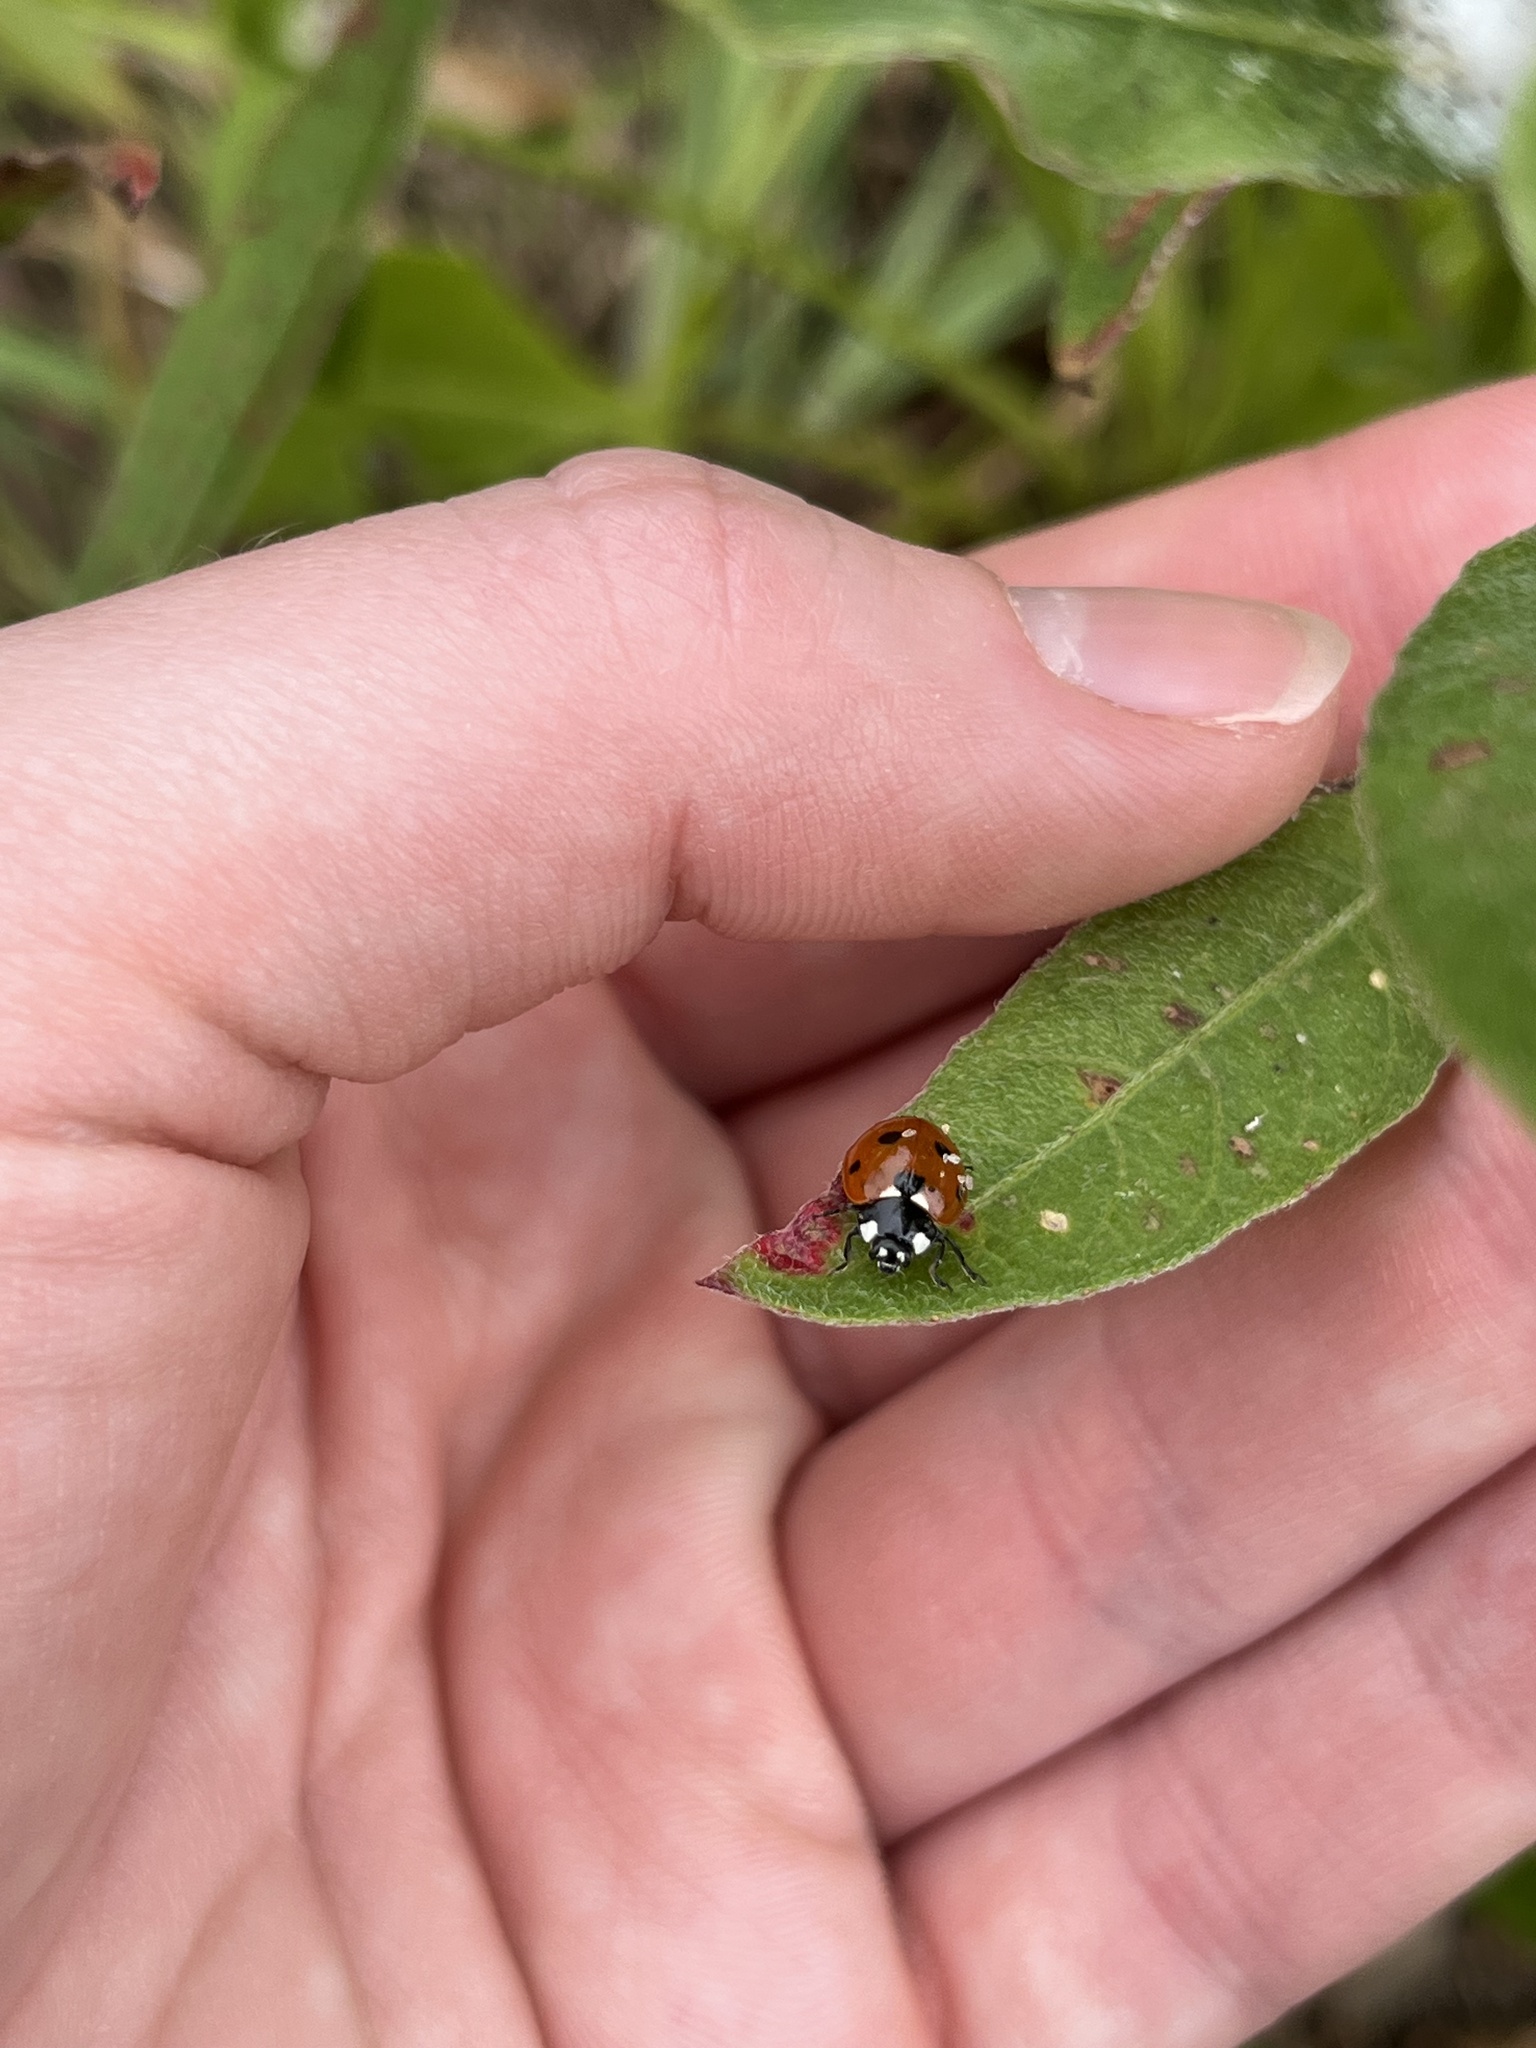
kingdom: Animalia
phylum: Arthropoda
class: Insecta
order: Coleoptera
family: Coccinellidae
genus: Coccinella
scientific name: Coccinella septempunctata
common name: Sevenspotted lady beetle
